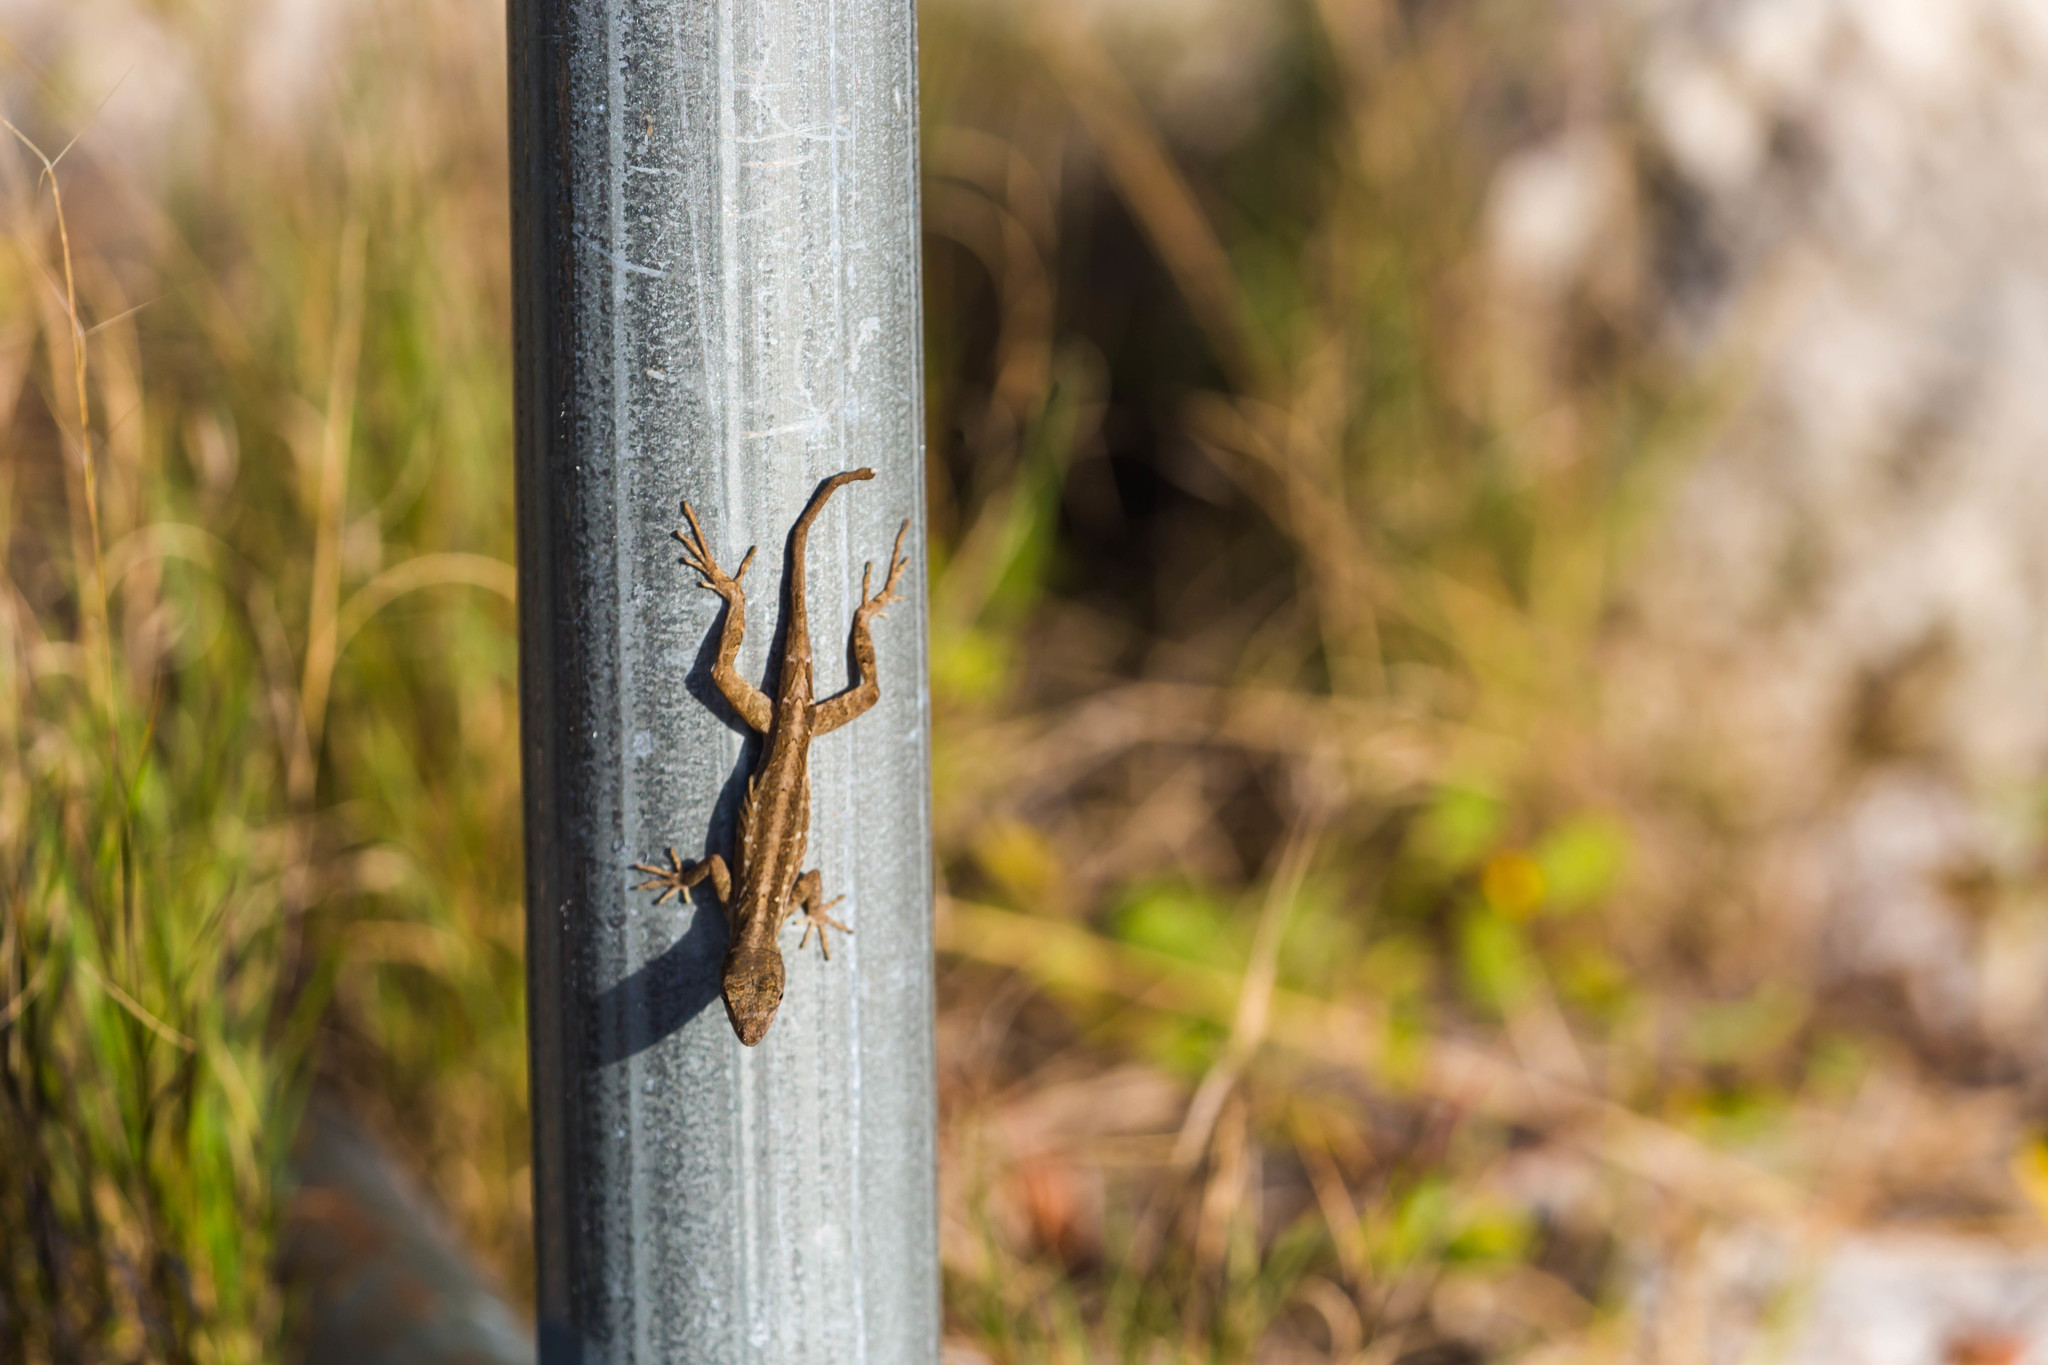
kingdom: Animalia
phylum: Chordata
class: Squamata
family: Dactyloidae
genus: Anolis
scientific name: Anolis sagrei
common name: Brown anole
